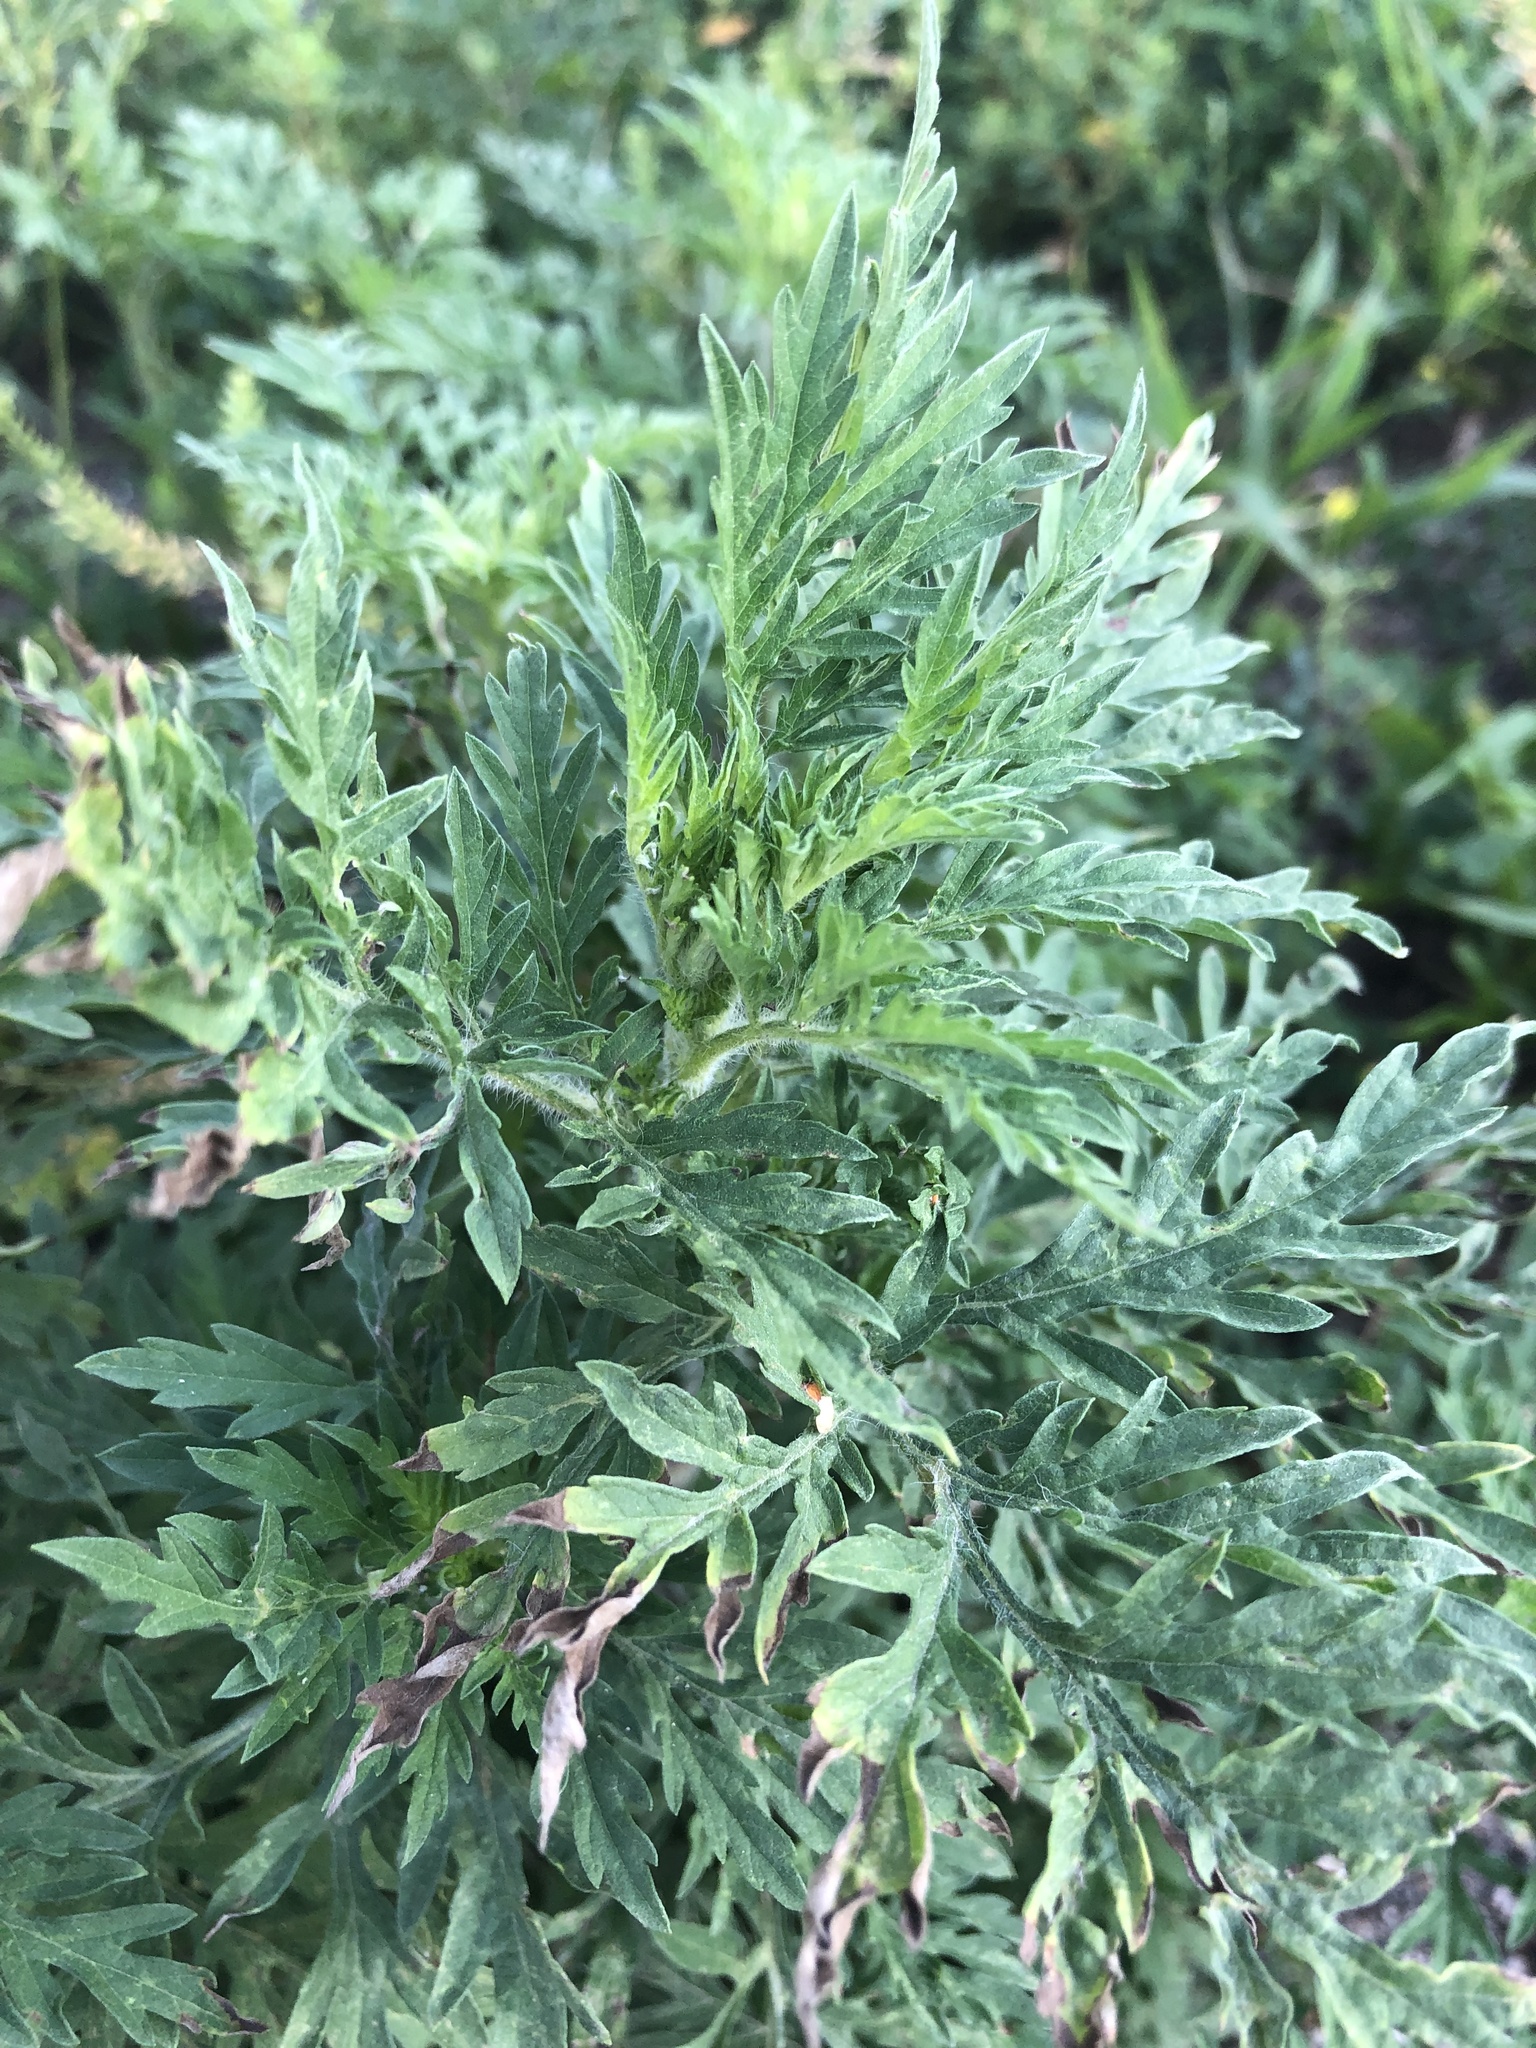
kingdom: Plantae
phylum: Tracheophyta
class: Magnoliopsida
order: Asterales
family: Asteraceae
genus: Ambrosia
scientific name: Ambrosia artemisiifolia
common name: Annual ragweed
